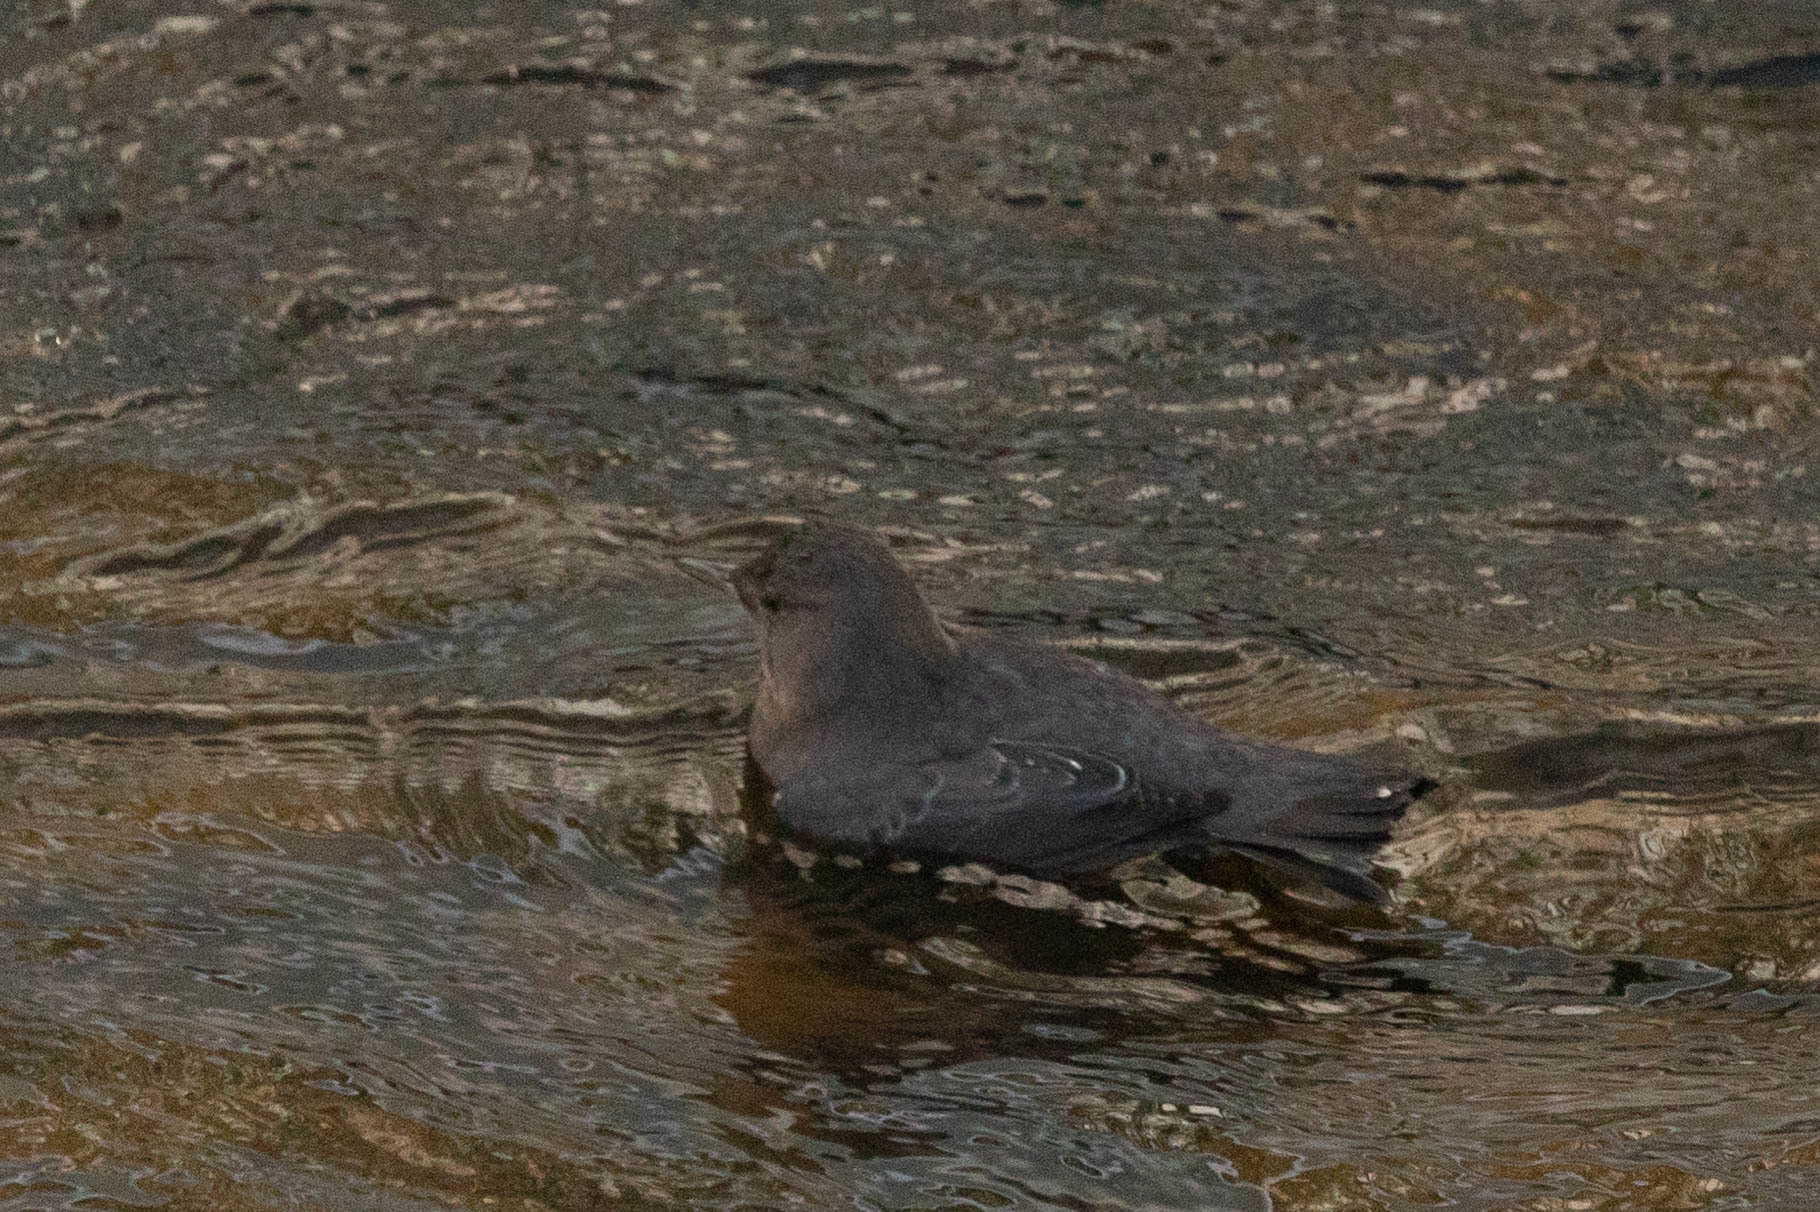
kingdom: Animalia
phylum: Chordata
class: Aves
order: Passeriformes
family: Cinclidae
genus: Cinclus
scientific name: Cinclus mexicanus
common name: American dipper
